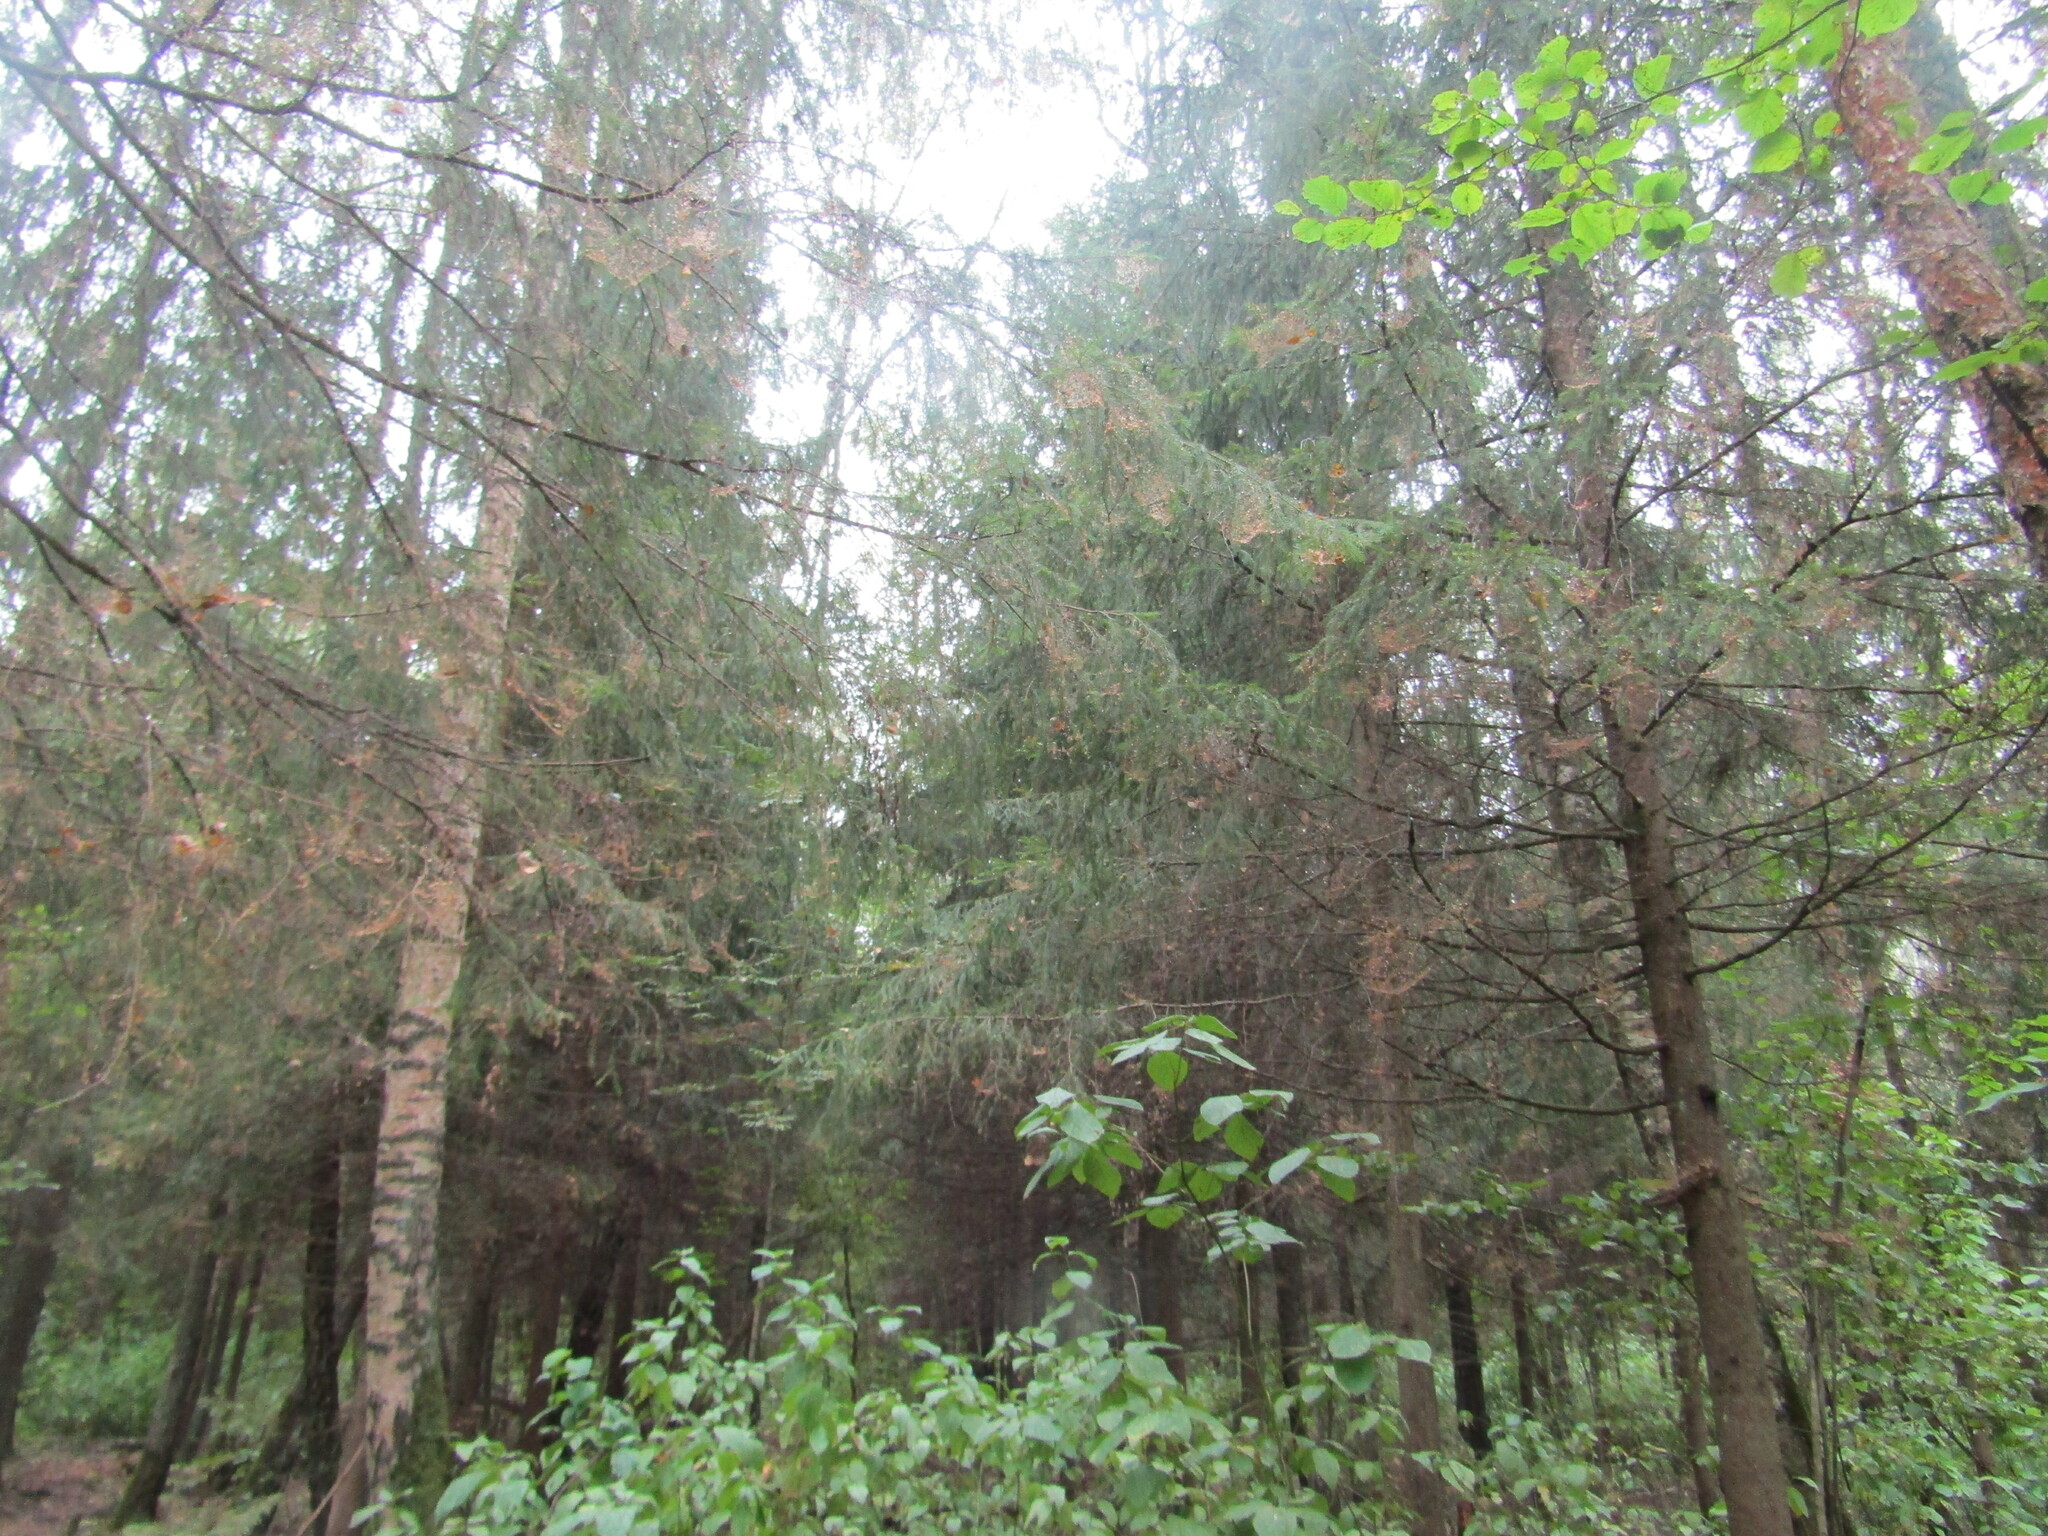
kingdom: Plantae
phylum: Tracheophyta
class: Pinopsida
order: Pinales
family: Pinaceae
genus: Picea
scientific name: Picea abies
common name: Norway spruce
